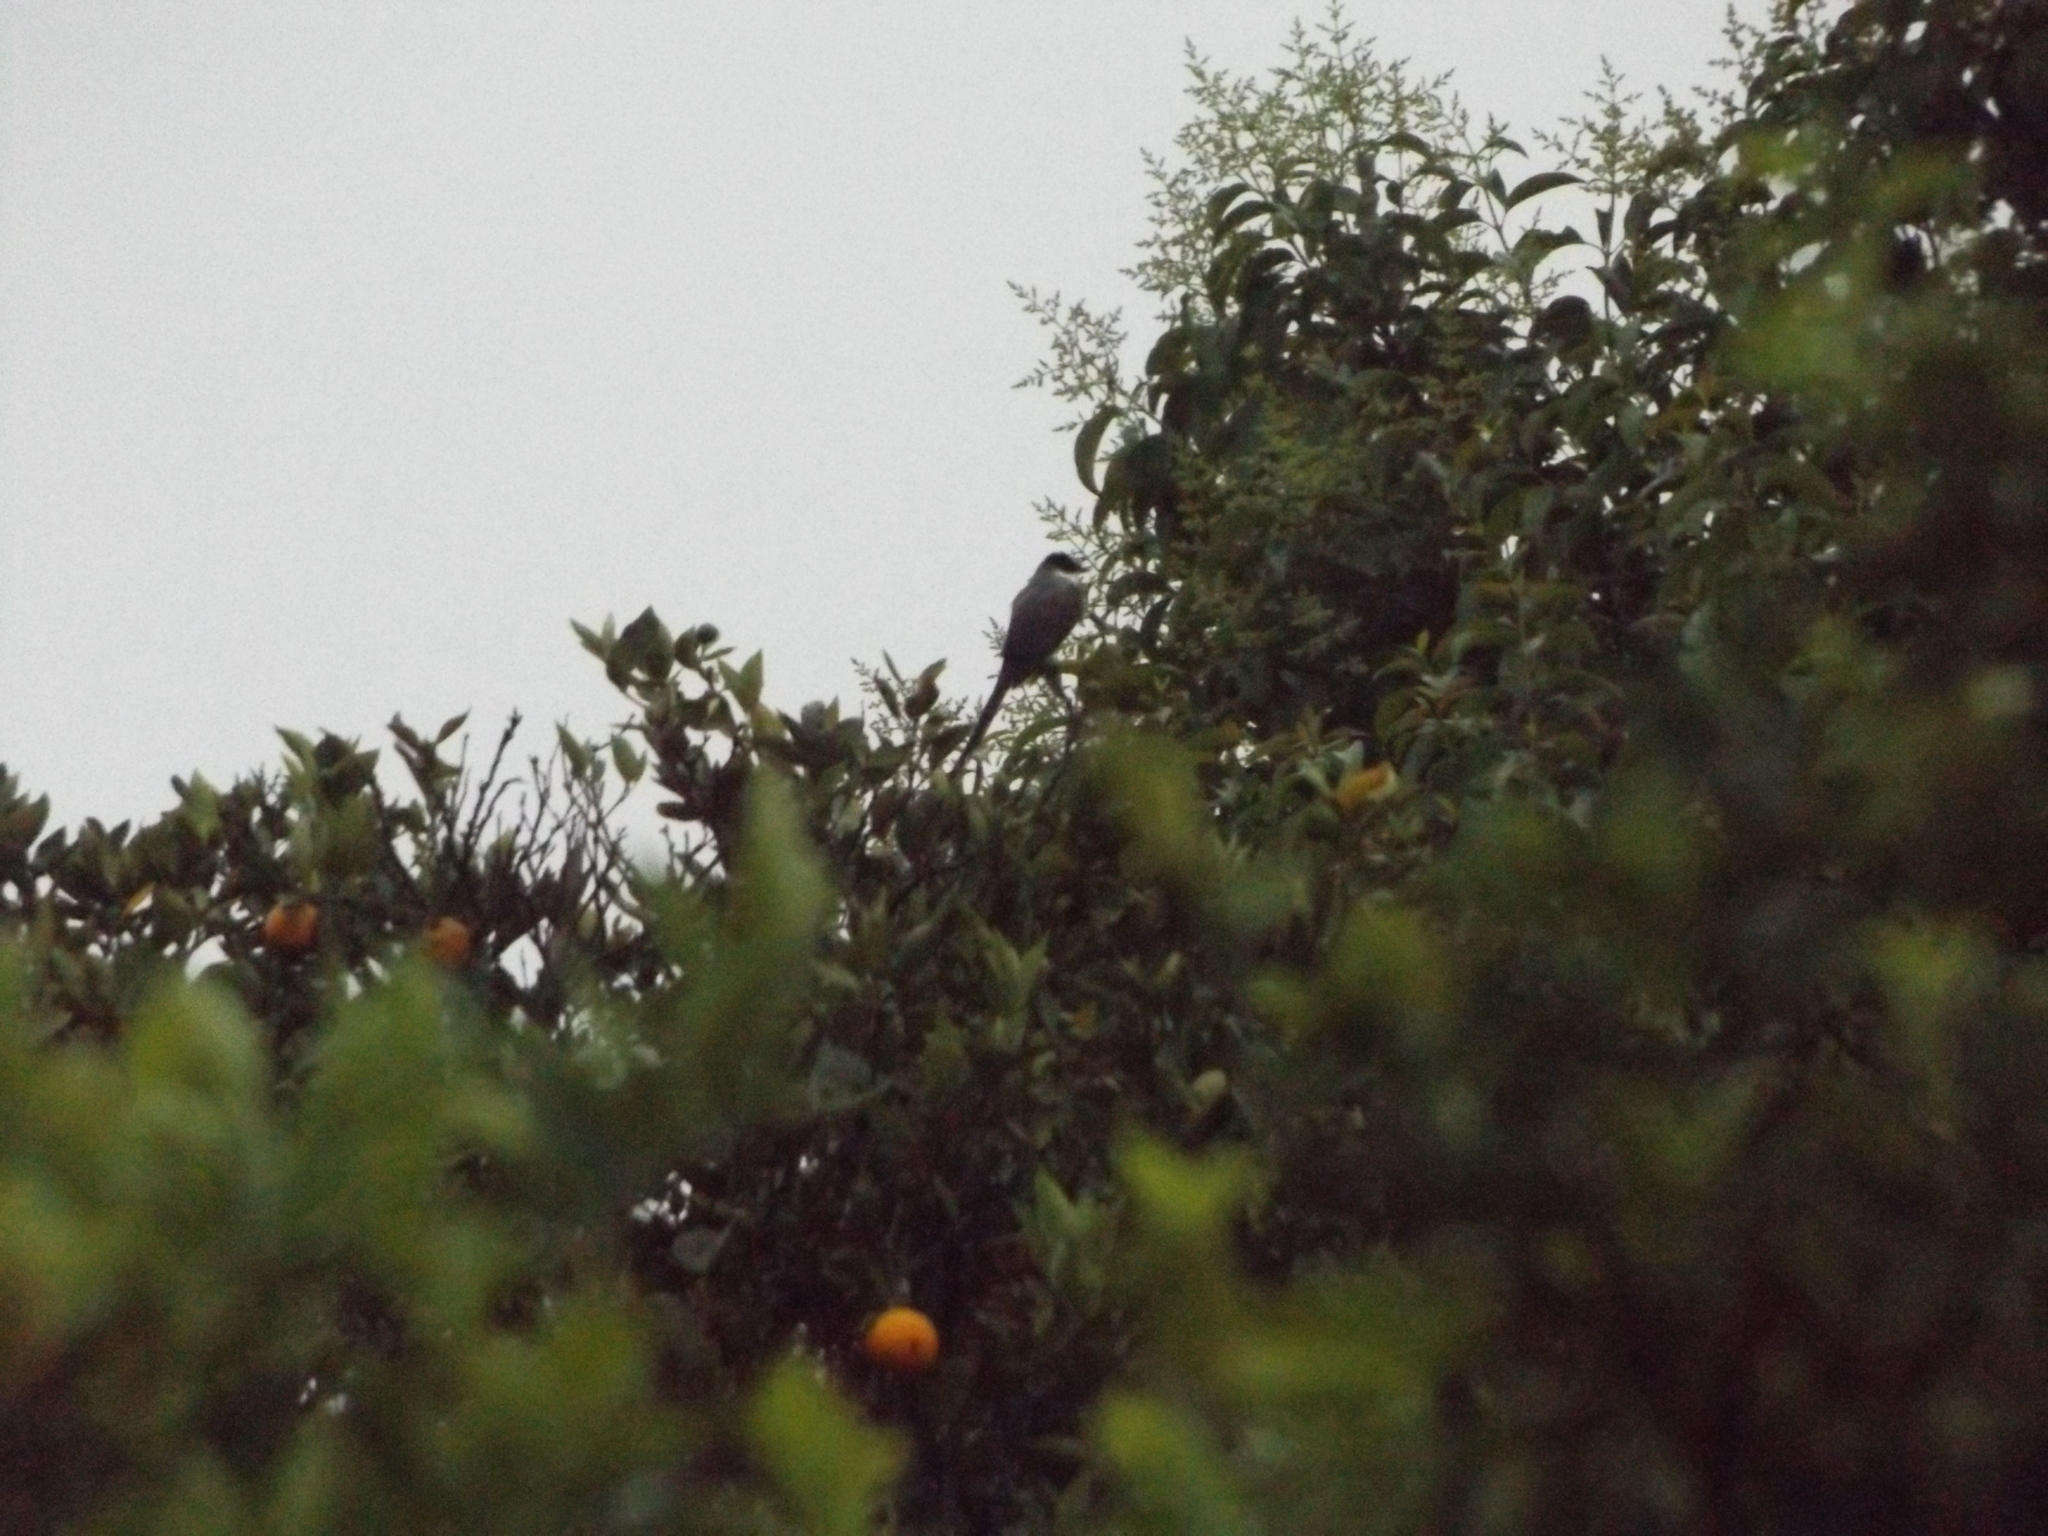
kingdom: Animalia
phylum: Chordata
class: Aves
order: Passeriformes
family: Tyrannidae
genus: Tyrannus
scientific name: Tyrannus savana
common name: Fork-tailed flycatcher
